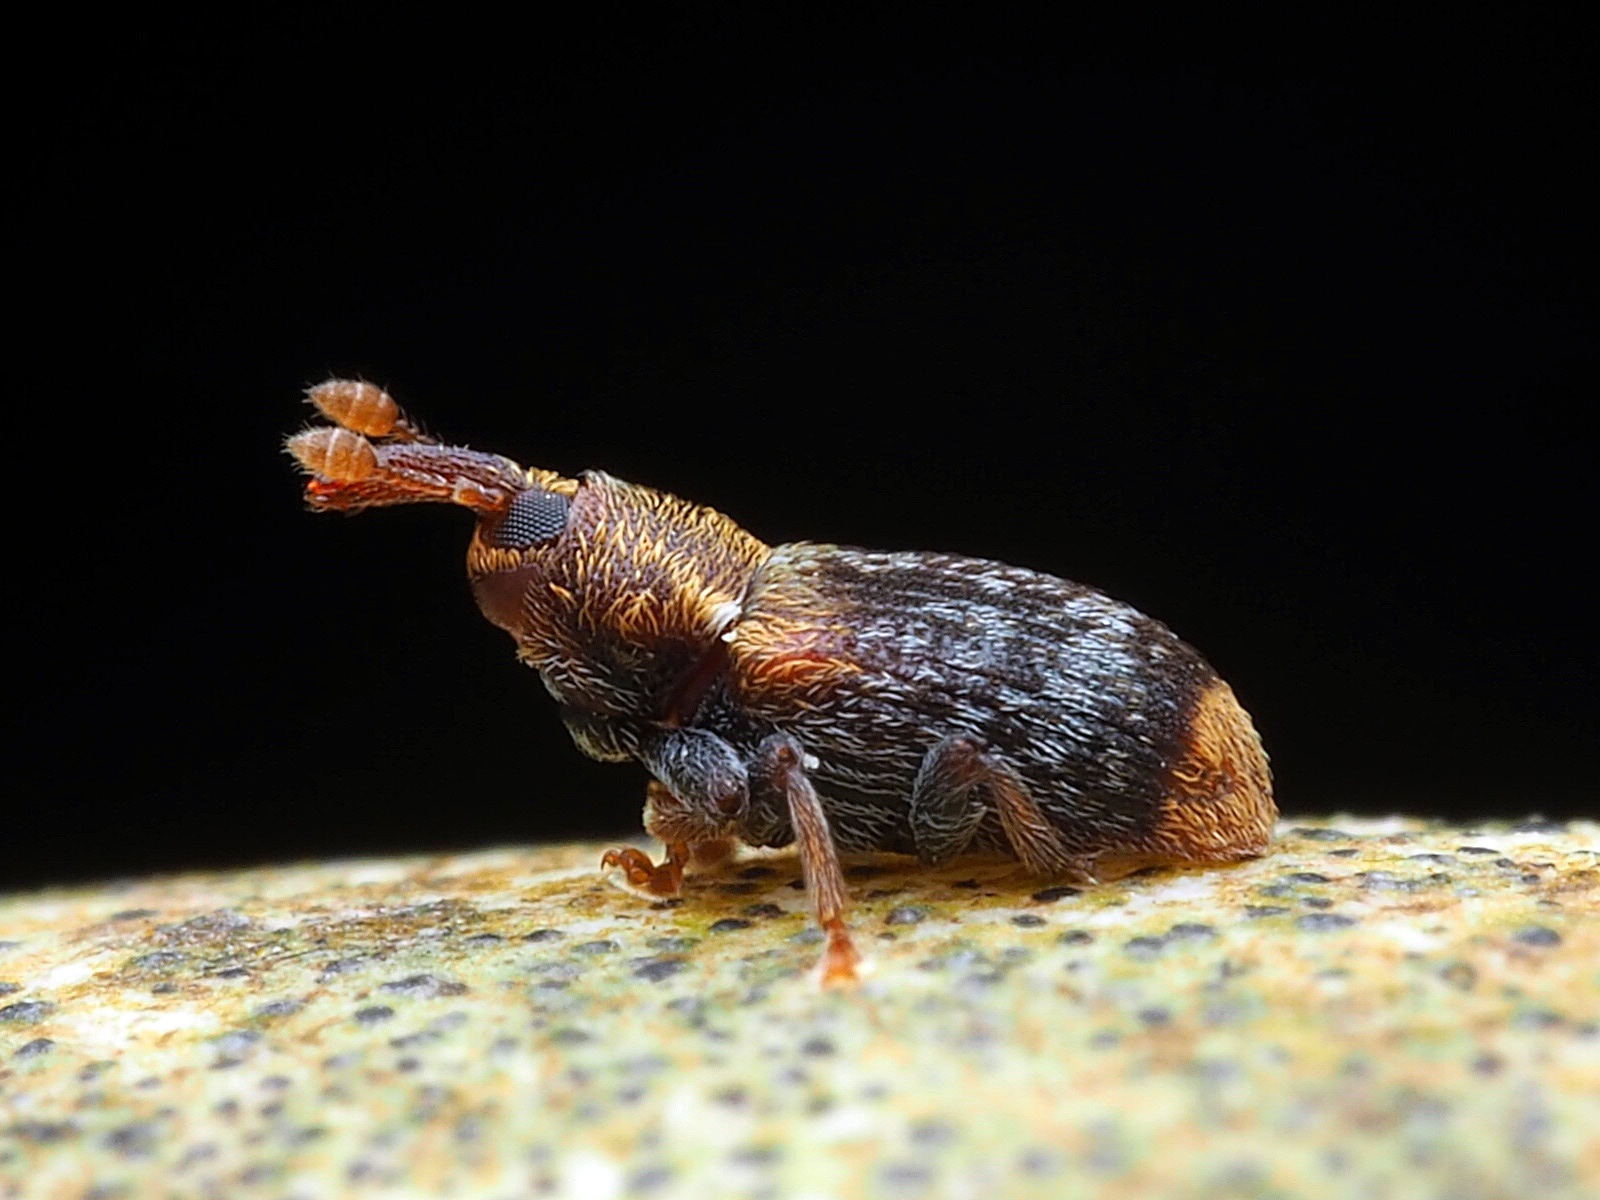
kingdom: Animalia
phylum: Arthropoda
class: Insecta
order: Coleoptera
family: Curculionidae
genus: Peristoreus
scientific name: Peristoreus flavitarsis
